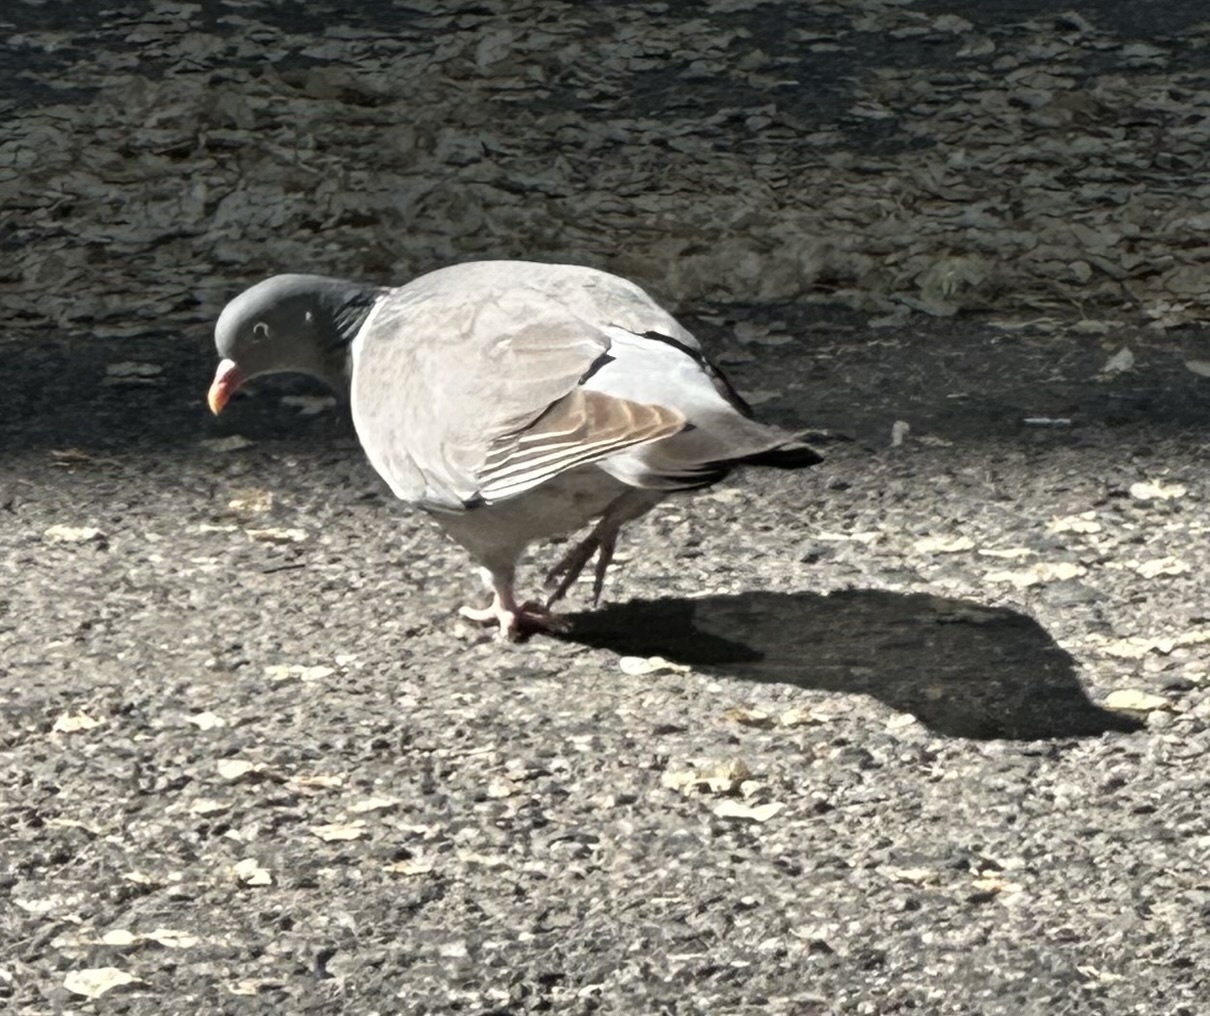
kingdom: Animalia
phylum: Chordata
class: Aves
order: Columbiformes
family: Columbidae
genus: Columba
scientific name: Columba palumbus
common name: Common wood pigeon
